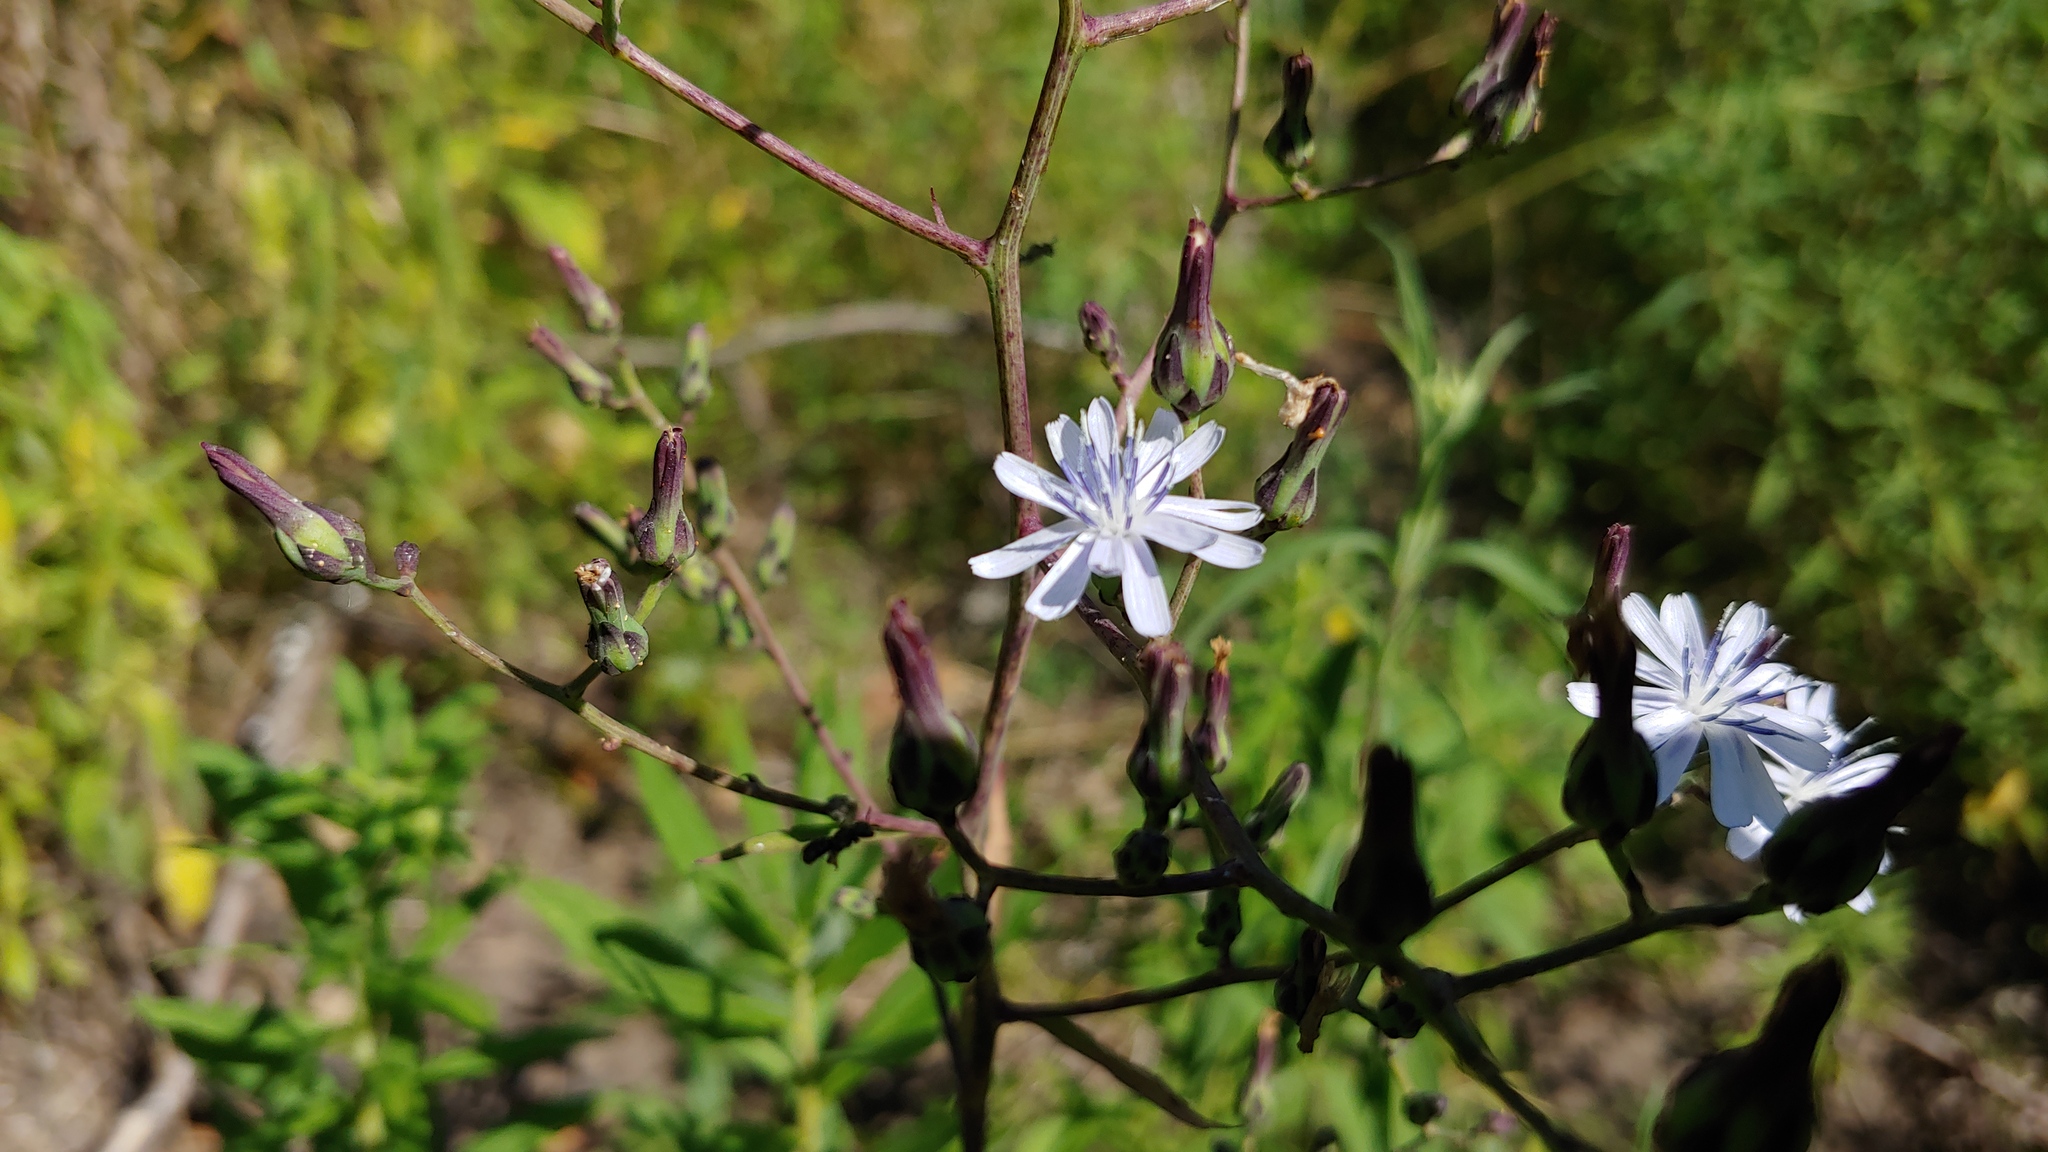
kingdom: Plantae
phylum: Tracheophyta
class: Magnoliopsida
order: Asterales
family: Asteraceae
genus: Lactuca
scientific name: Lactuca floridana
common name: Woodland lettuce
